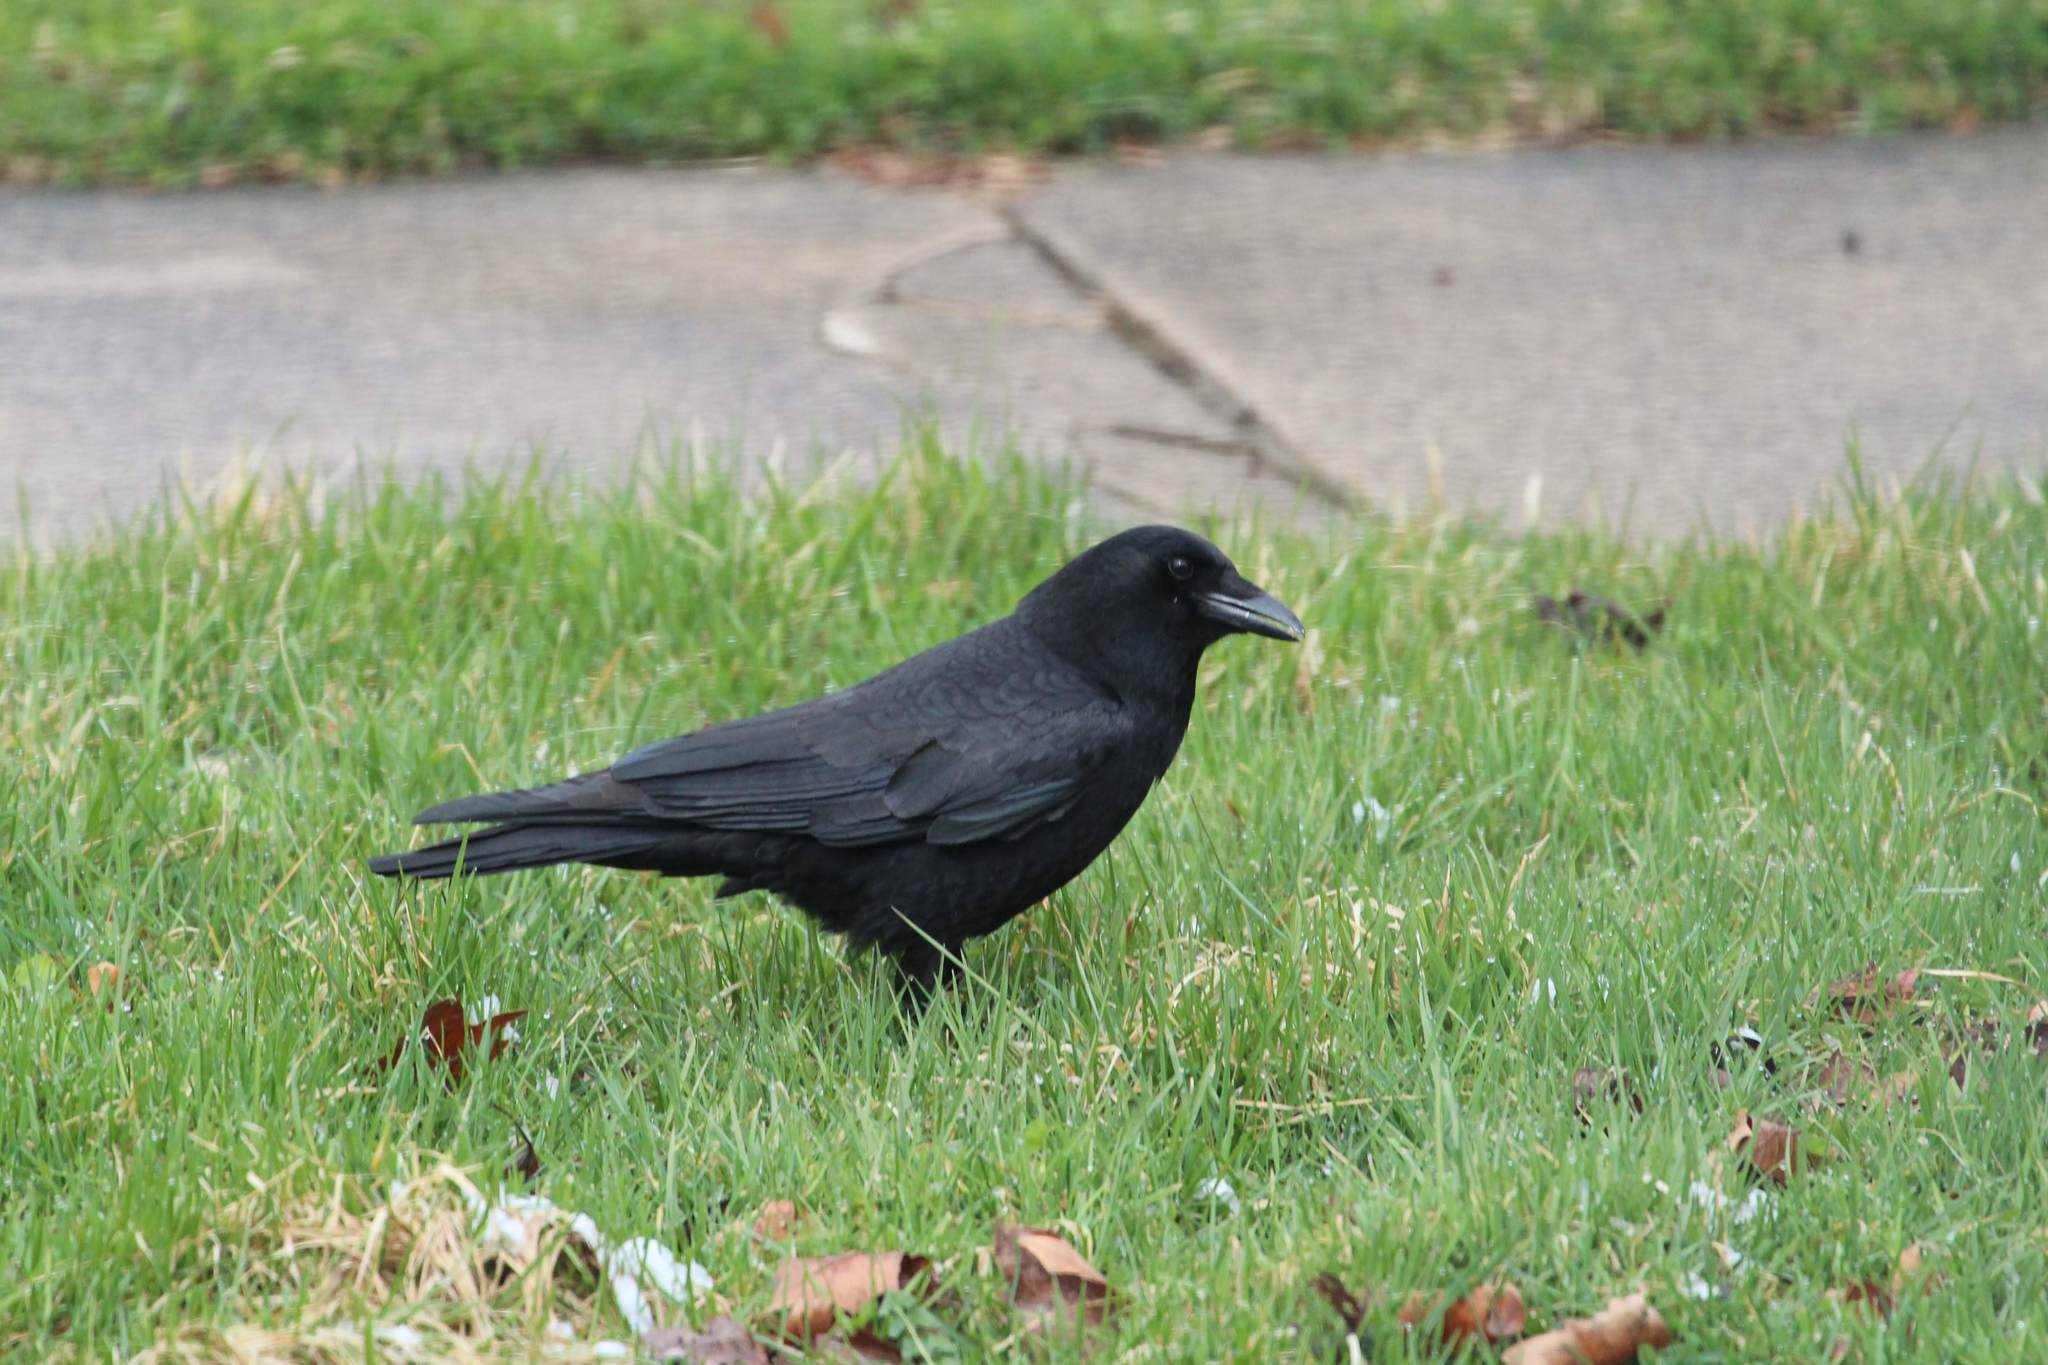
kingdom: Animalia
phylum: Chordata
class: Aves
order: Passeriformes
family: Corvidae
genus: Corvus
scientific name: Corvus brachyrhynchos
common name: American crow
